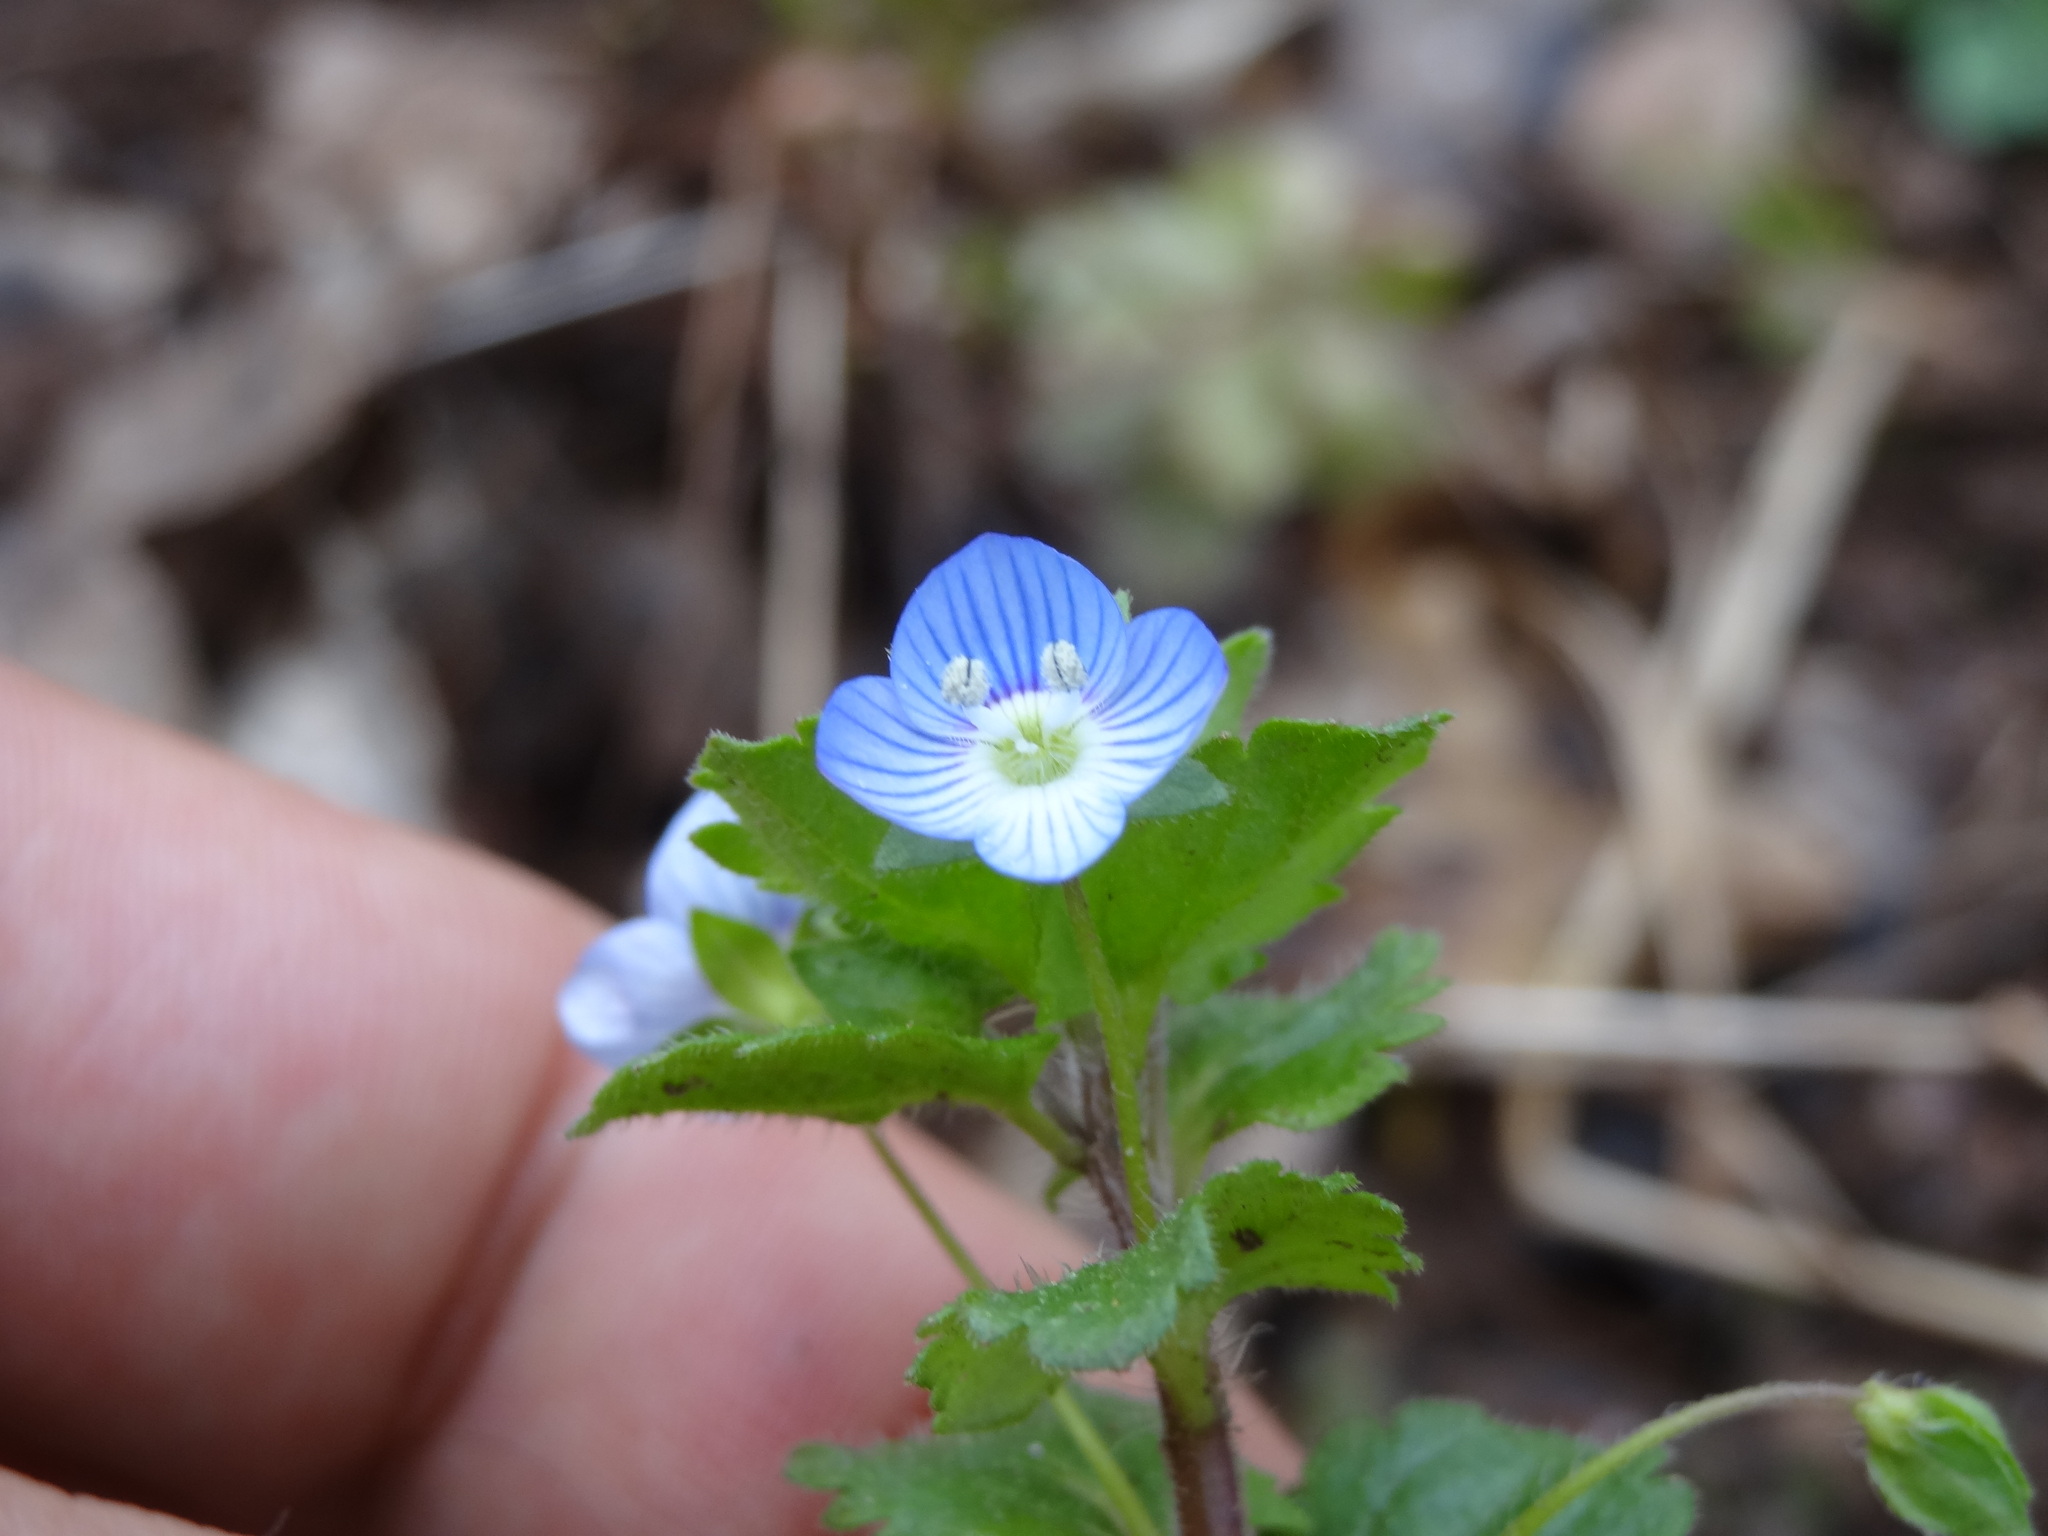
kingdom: Plantae
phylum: Tracheophyta
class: Magnoliopsida
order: Lamiales
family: Plantaginaceae
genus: Veronica
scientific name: Veronica persica
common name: Common field-speedwell
